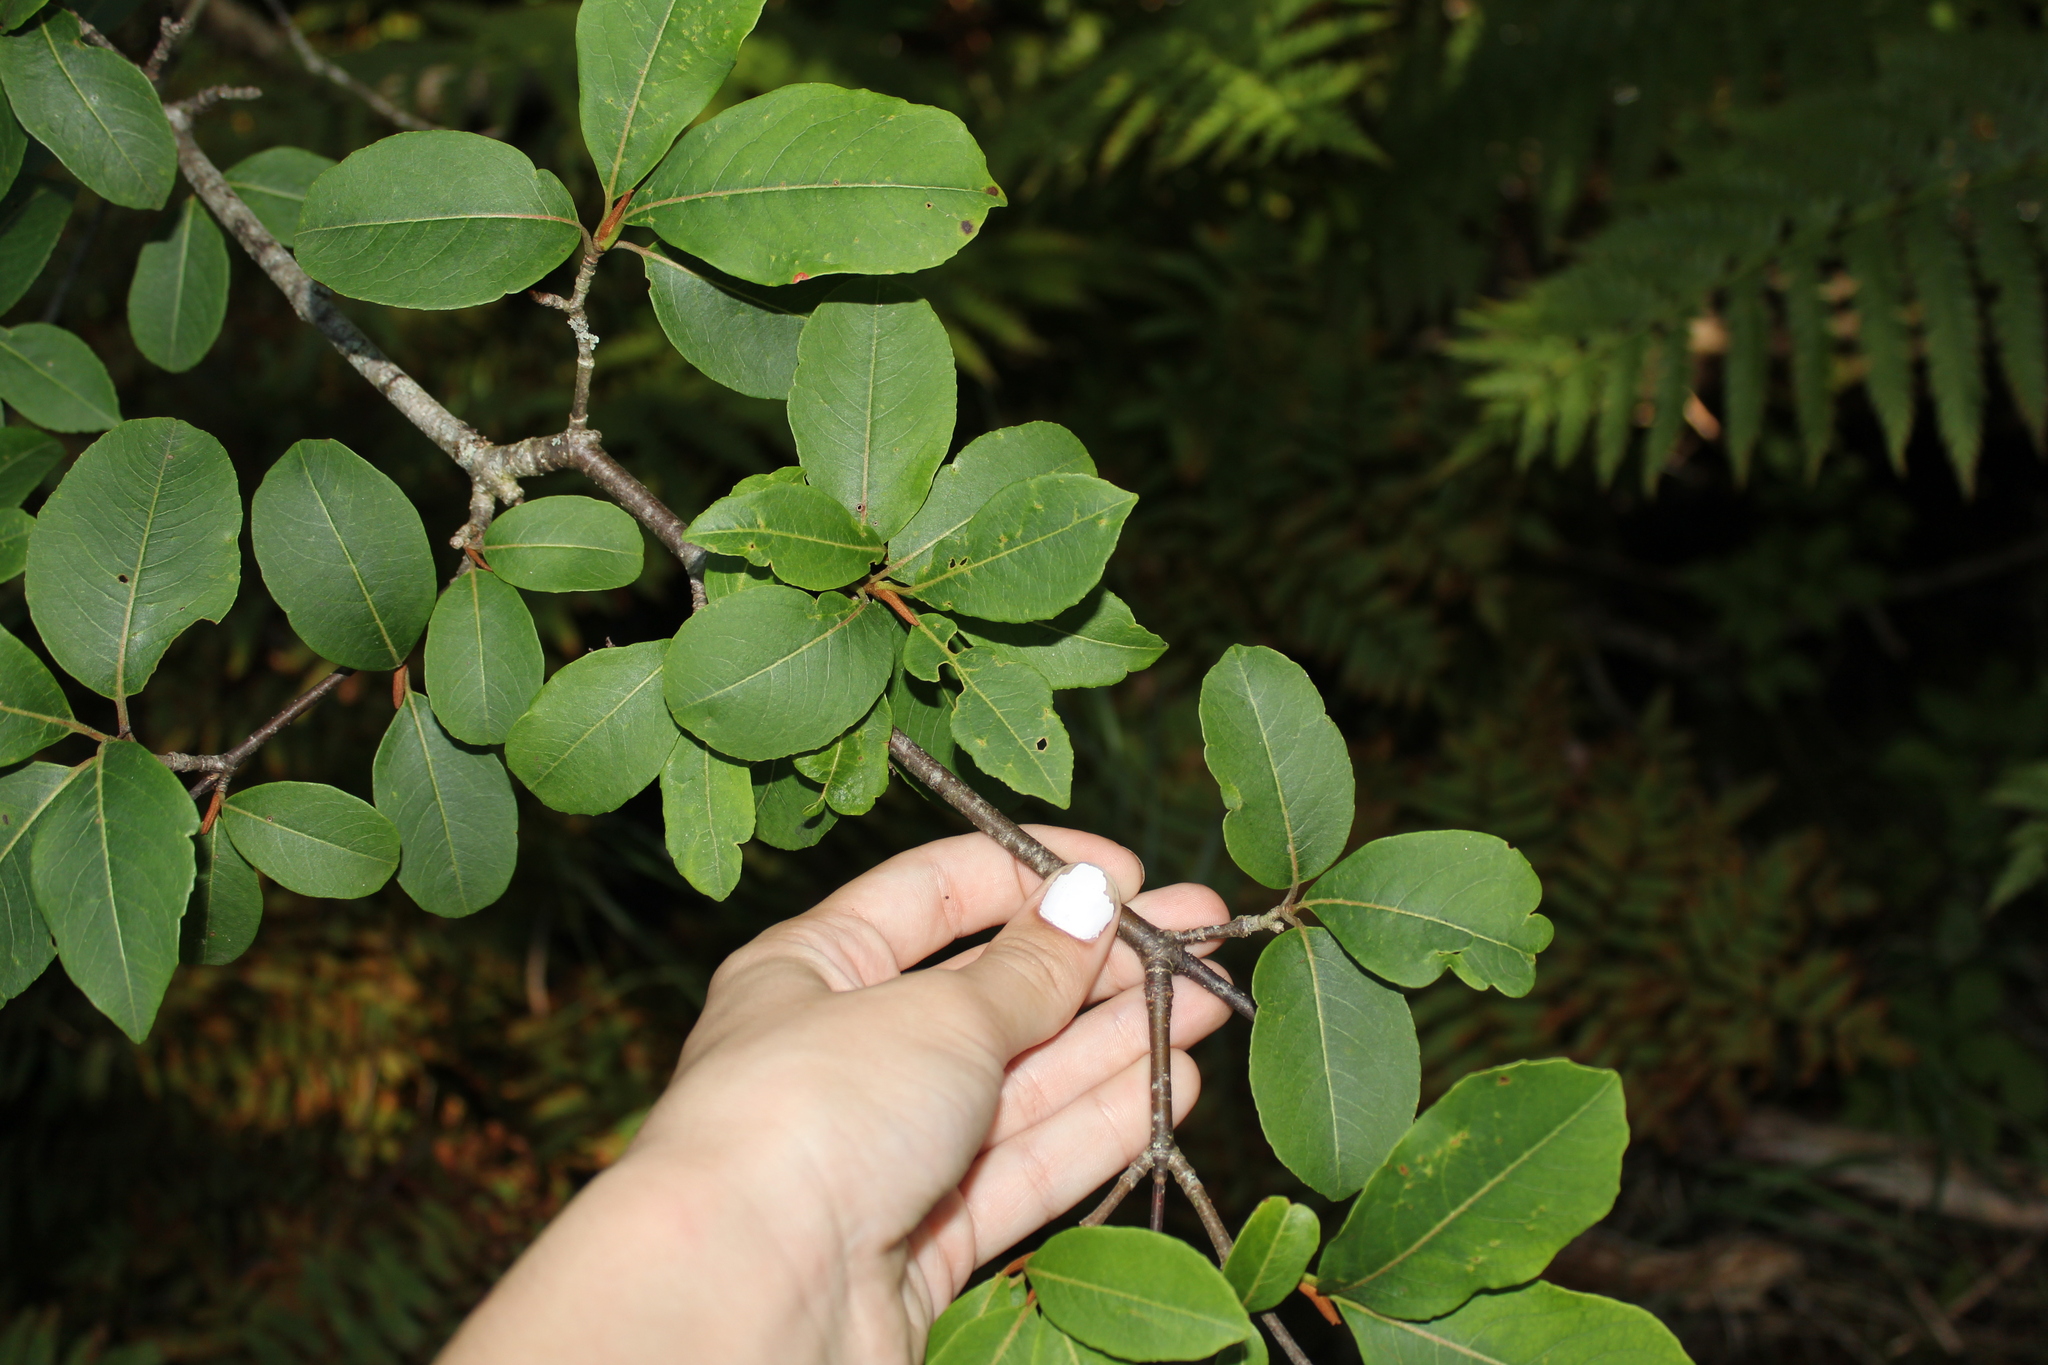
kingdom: Plantae
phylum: Tracheophyta
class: Magnoliopsida
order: Dipsacales
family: Viburnaceae
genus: Viburnum
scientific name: Viburnum cassinoides
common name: Swamp haw
